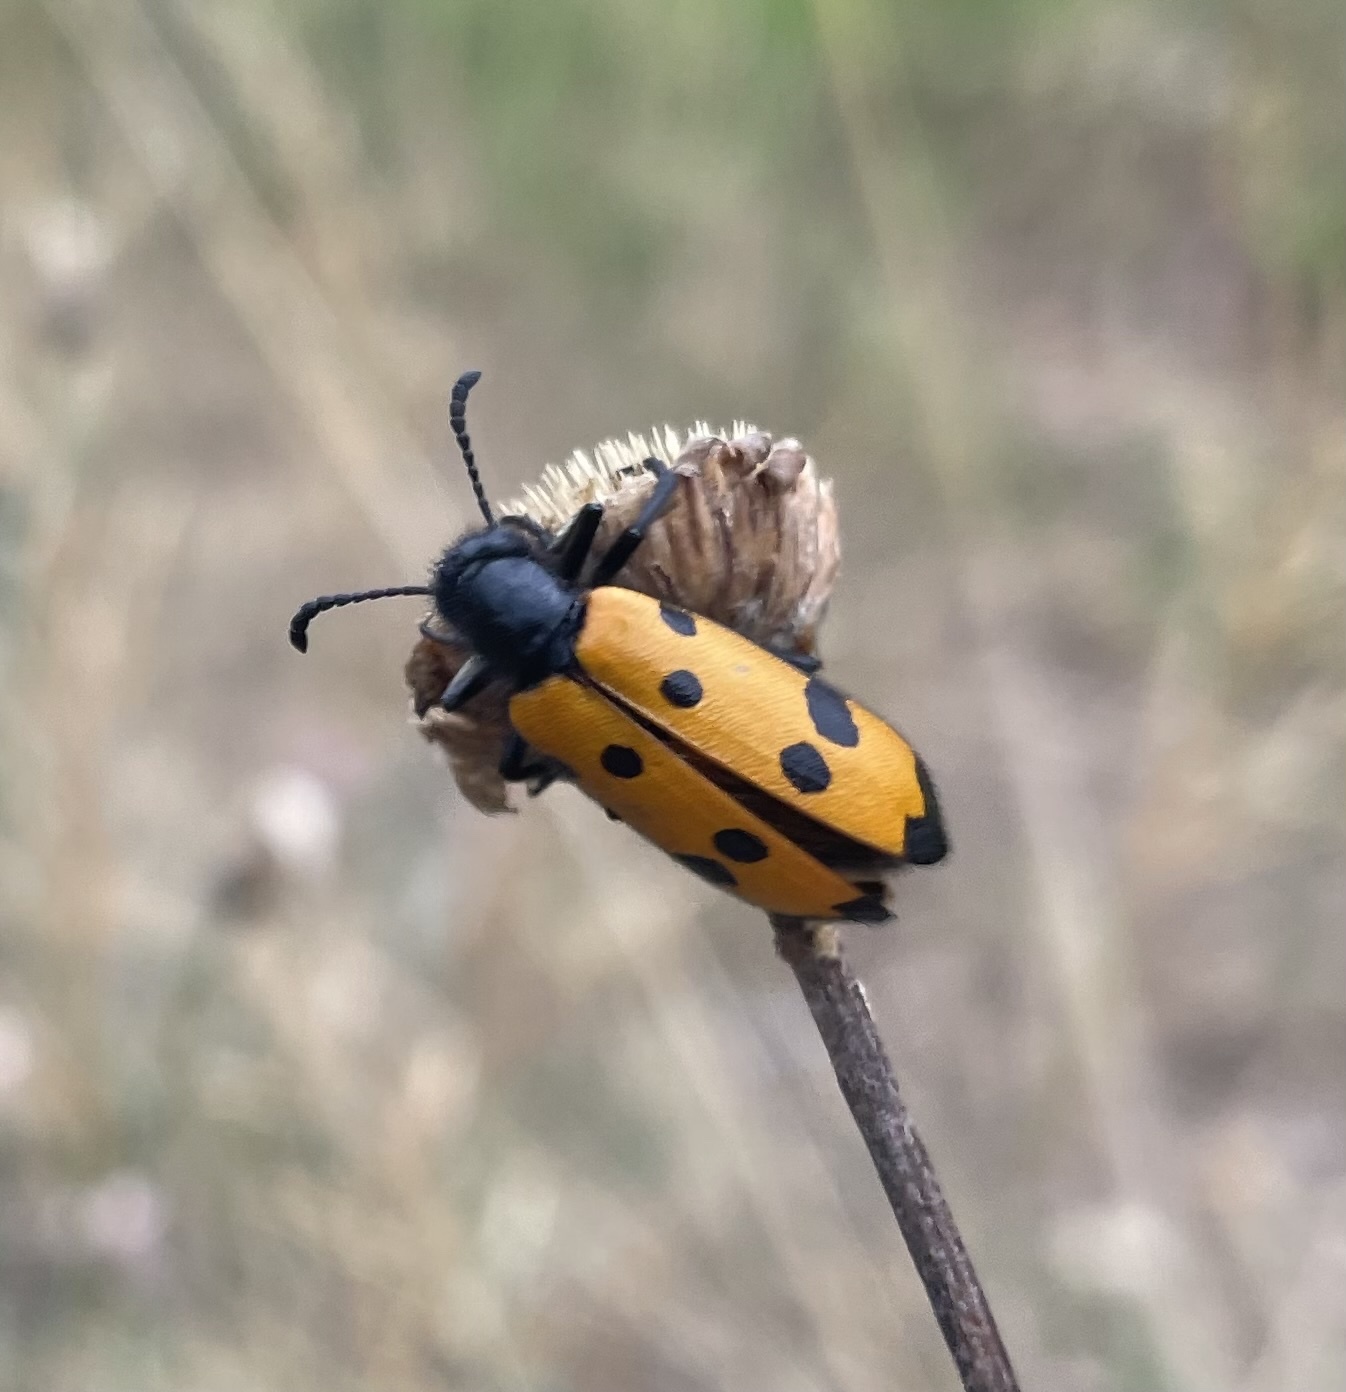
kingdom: Animalia
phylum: Arthropoda
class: Insecta
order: Coleoptera
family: Meloidae
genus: Mylabris
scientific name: Mylabris quadripunctata
